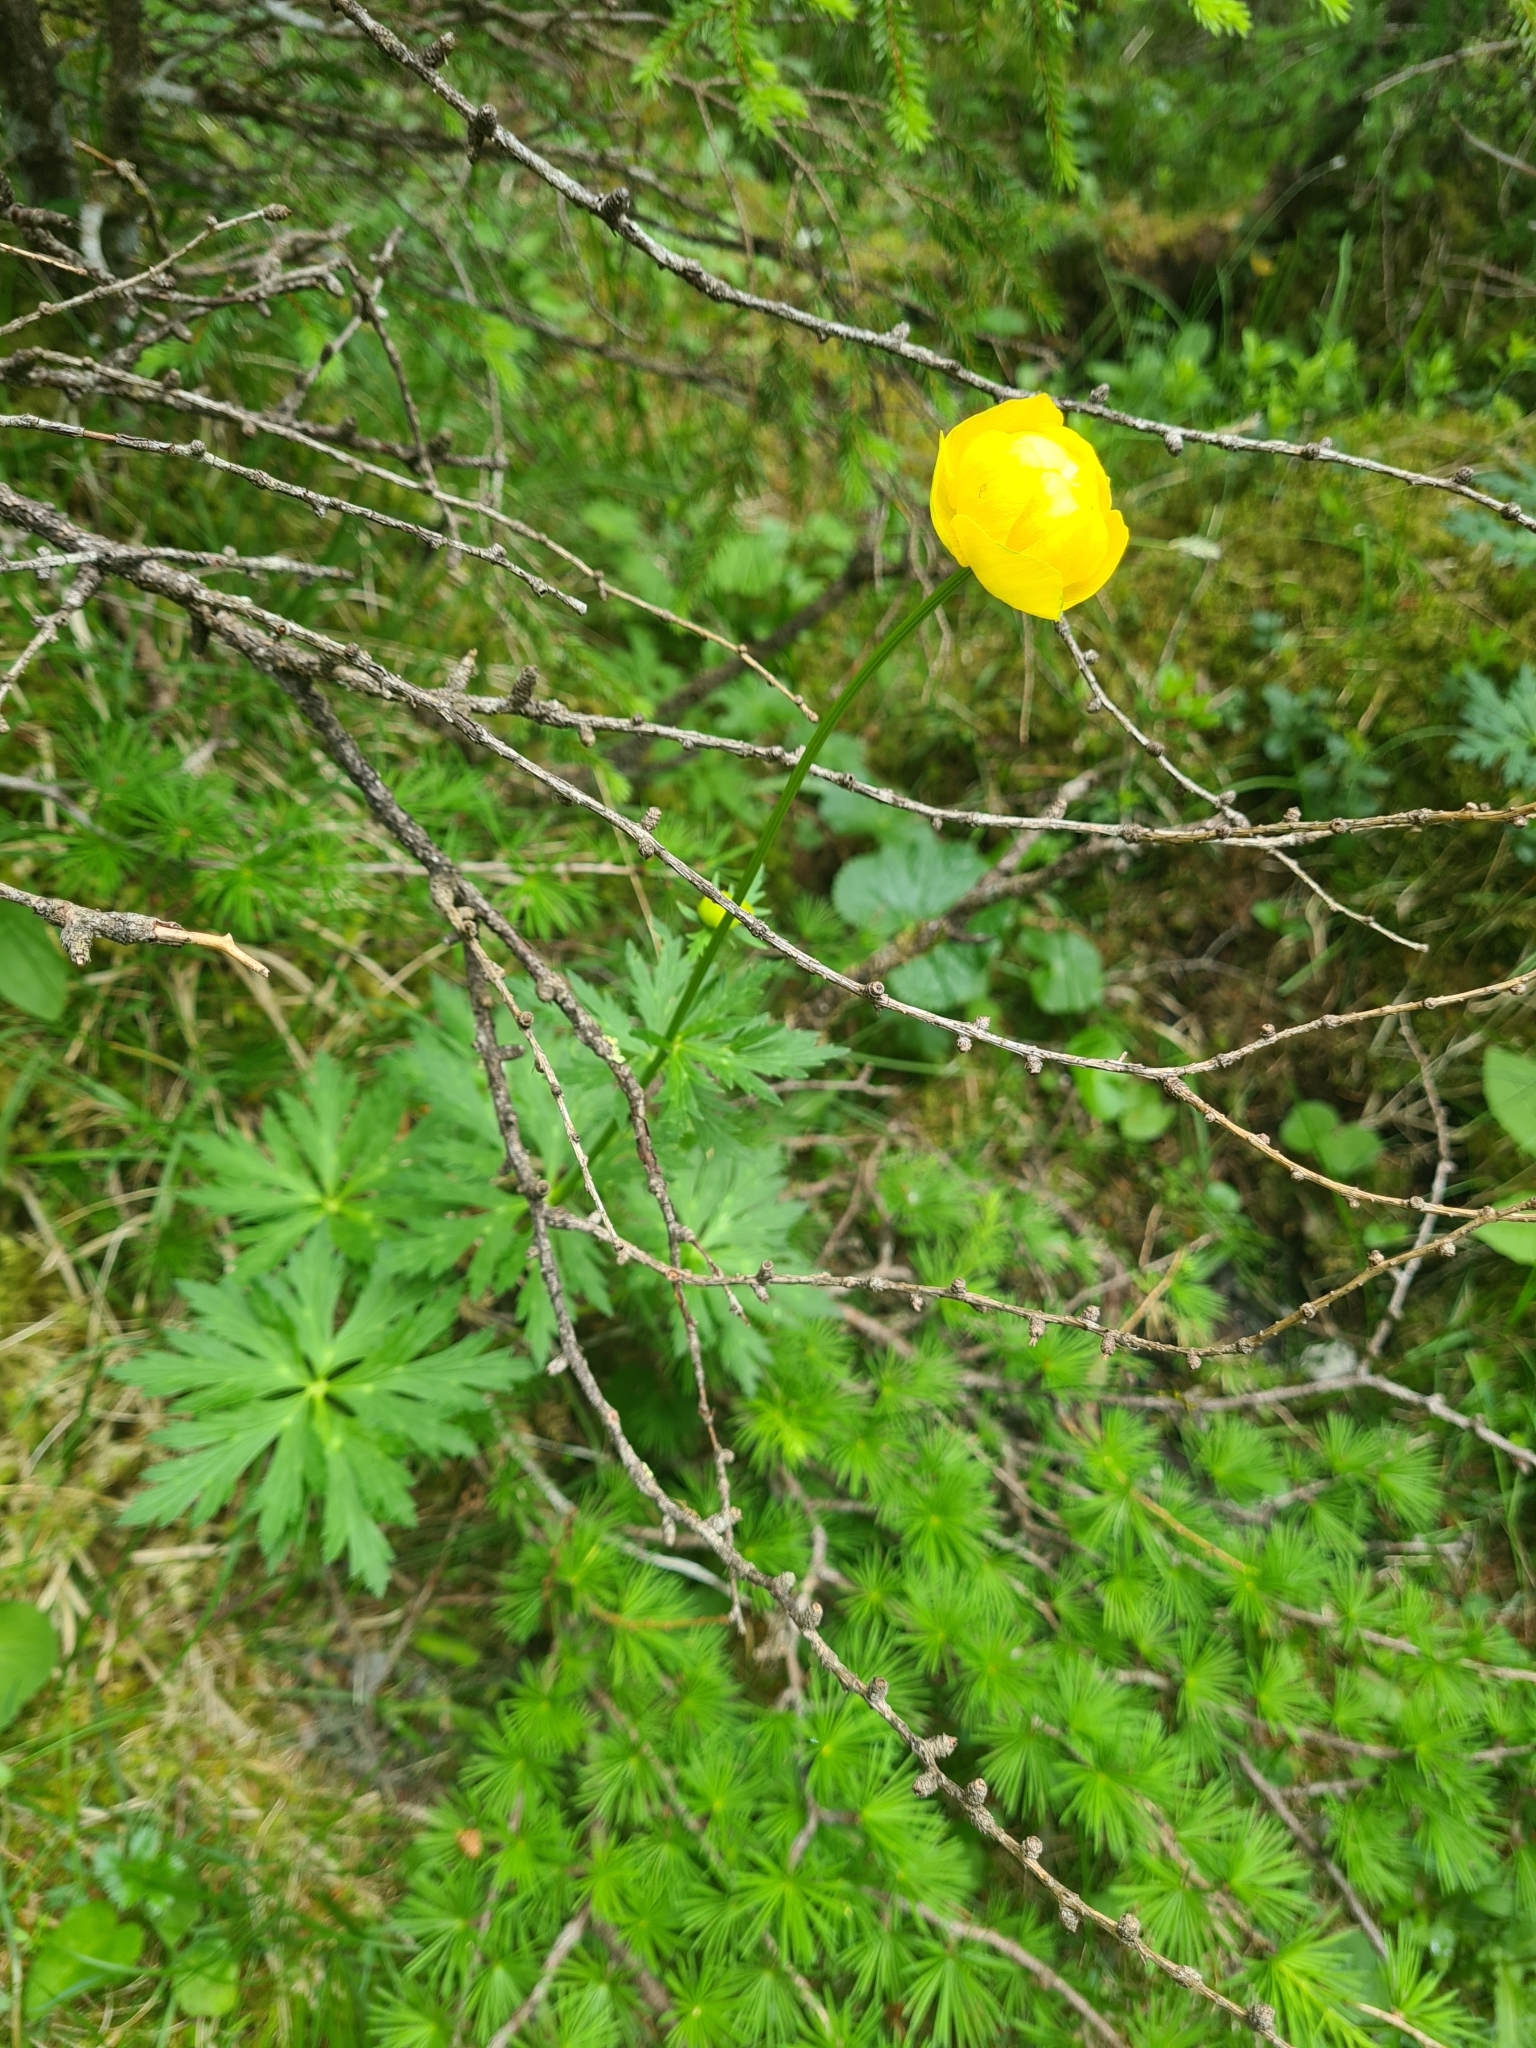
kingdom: Plantae
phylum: Tracheophyta
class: Magnoliopsida
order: Ranunculales
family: Ranunculaceae
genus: Trollius
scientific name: Trollius europaeus
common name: European globeflower
